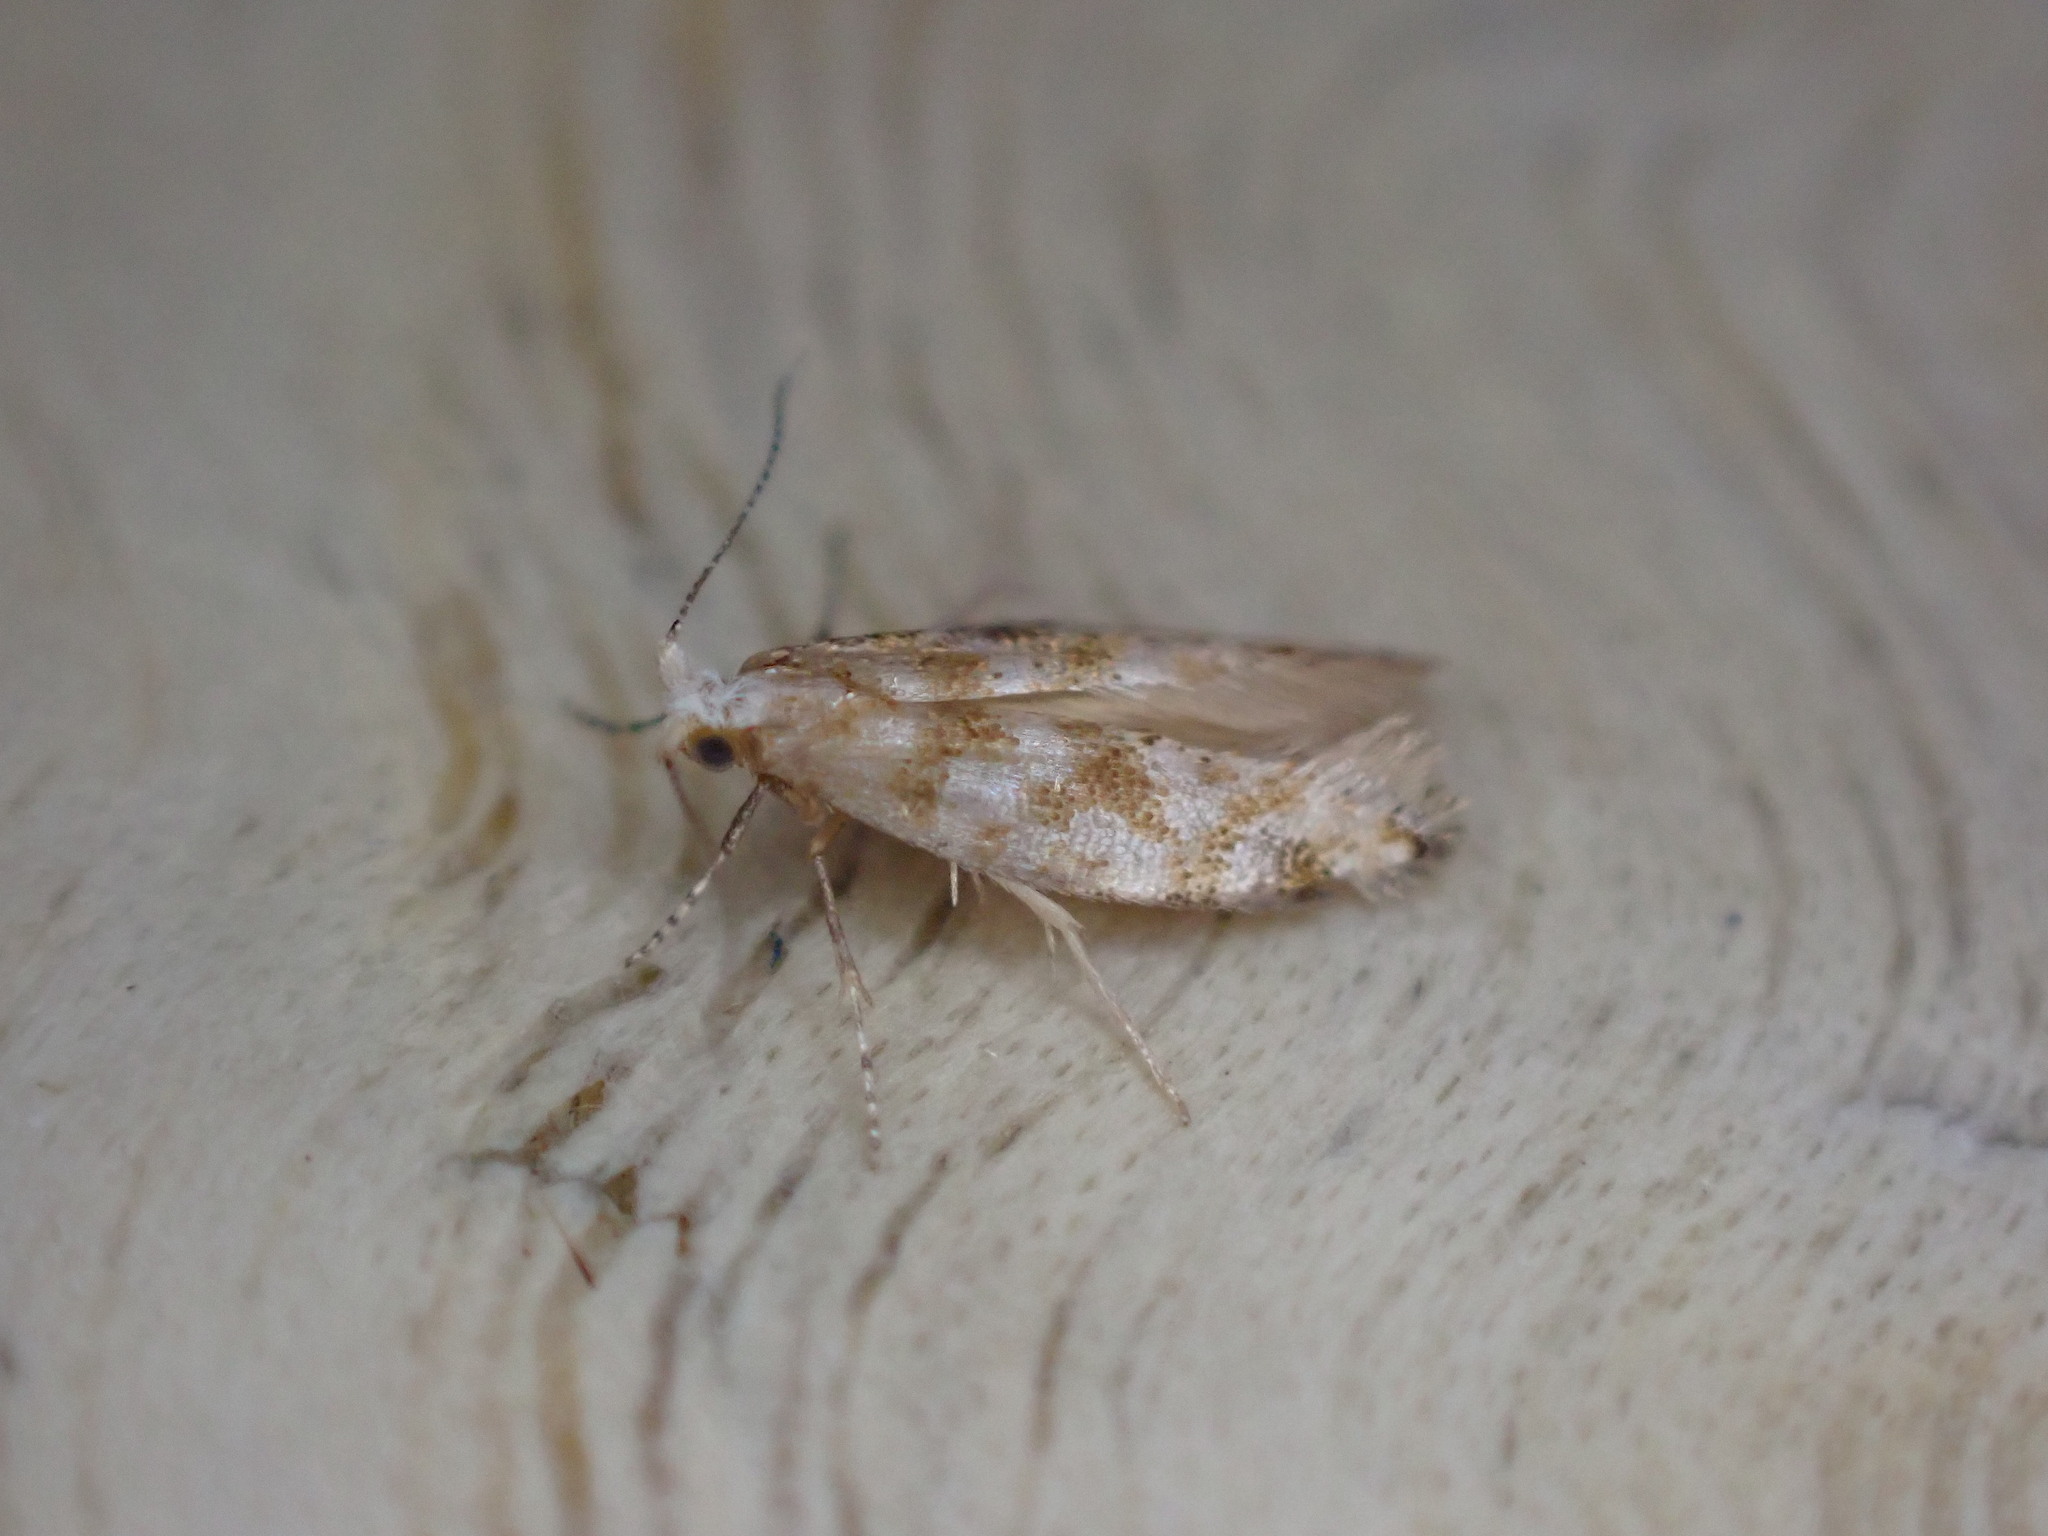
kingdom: Animalia
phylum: Arthropoda
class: Insecta
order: Lepidoptera
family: Argyresthiidae
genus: Argyresthia
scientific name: Argyresthia cupressella
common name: Cypress tip moth
